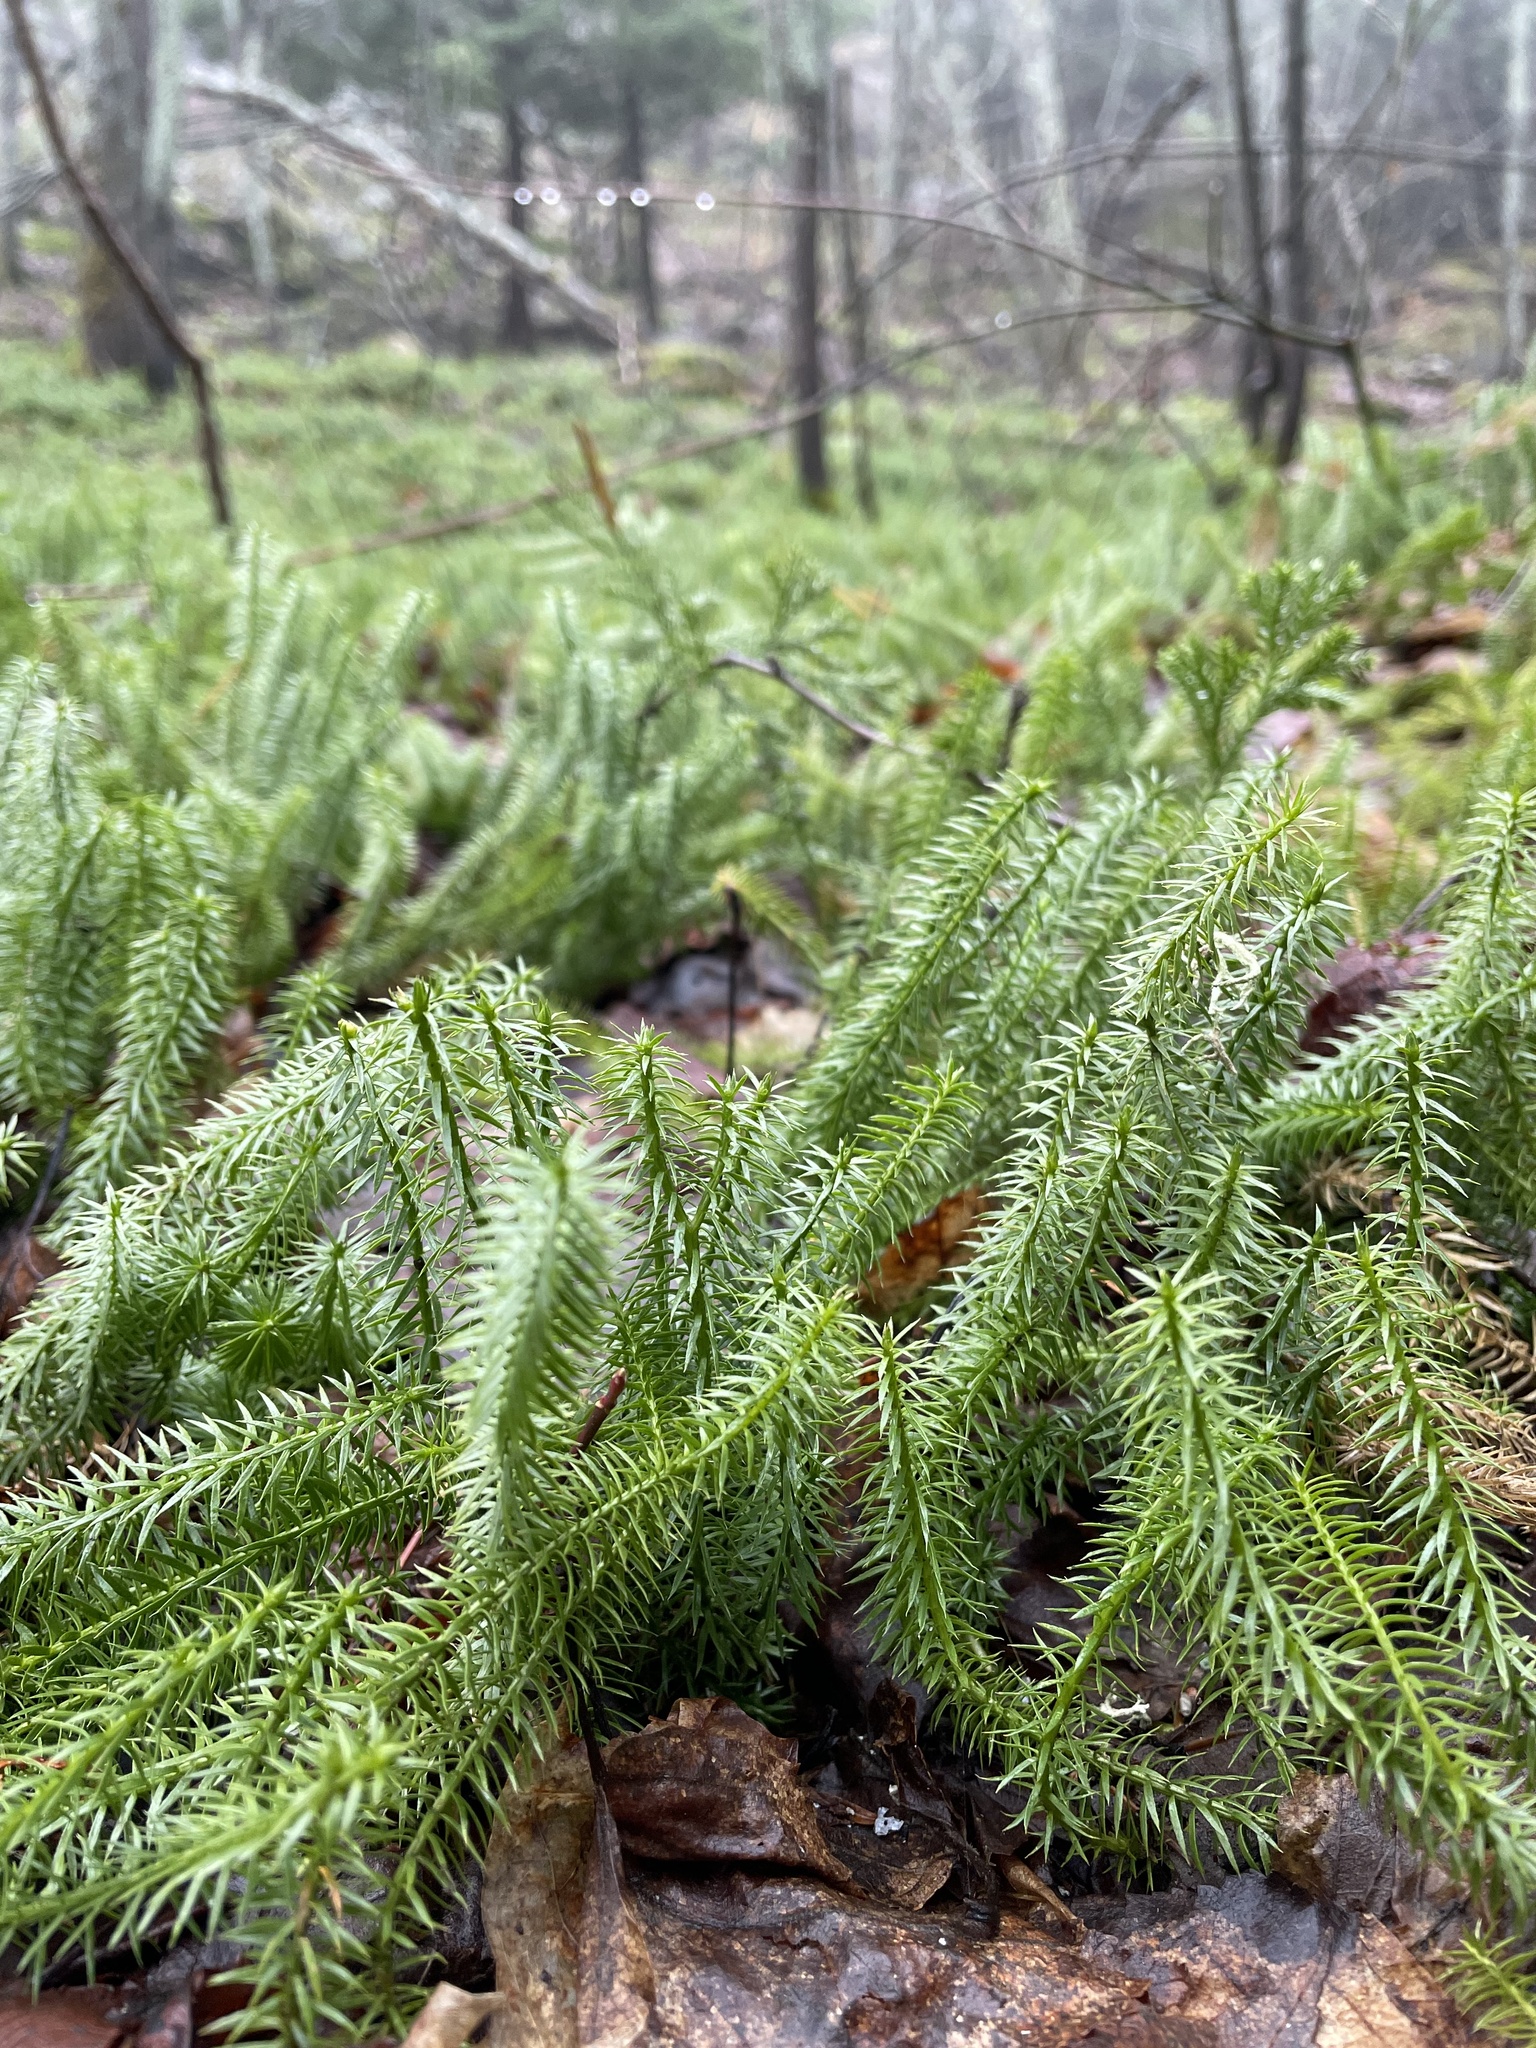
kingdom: Plantae
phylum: Tracheophyta
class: Lycopodiopsida
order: Lycopodiales
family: Lycopodiaceae
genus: Spinulum
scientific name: Spinulum annotinum
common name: Interrupted club-moss
